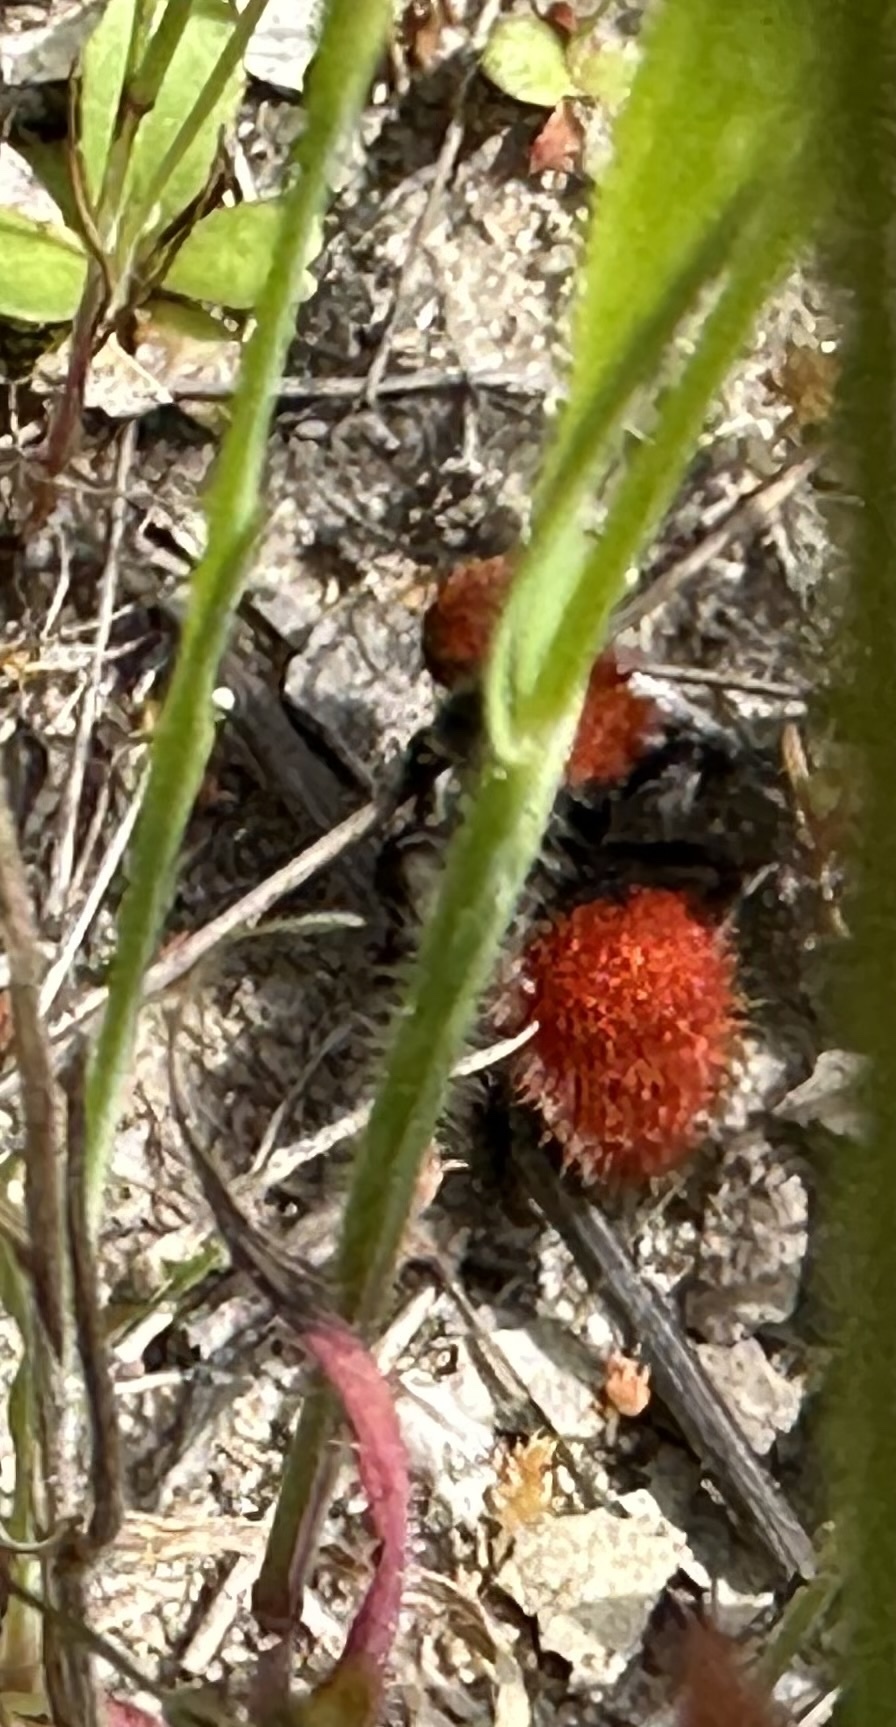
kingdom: Animalia
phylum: Arthropoda
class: Insecta
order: Hymenoptera
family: Mutillidae
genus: Dasymutilla
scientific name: Dasymutilla
